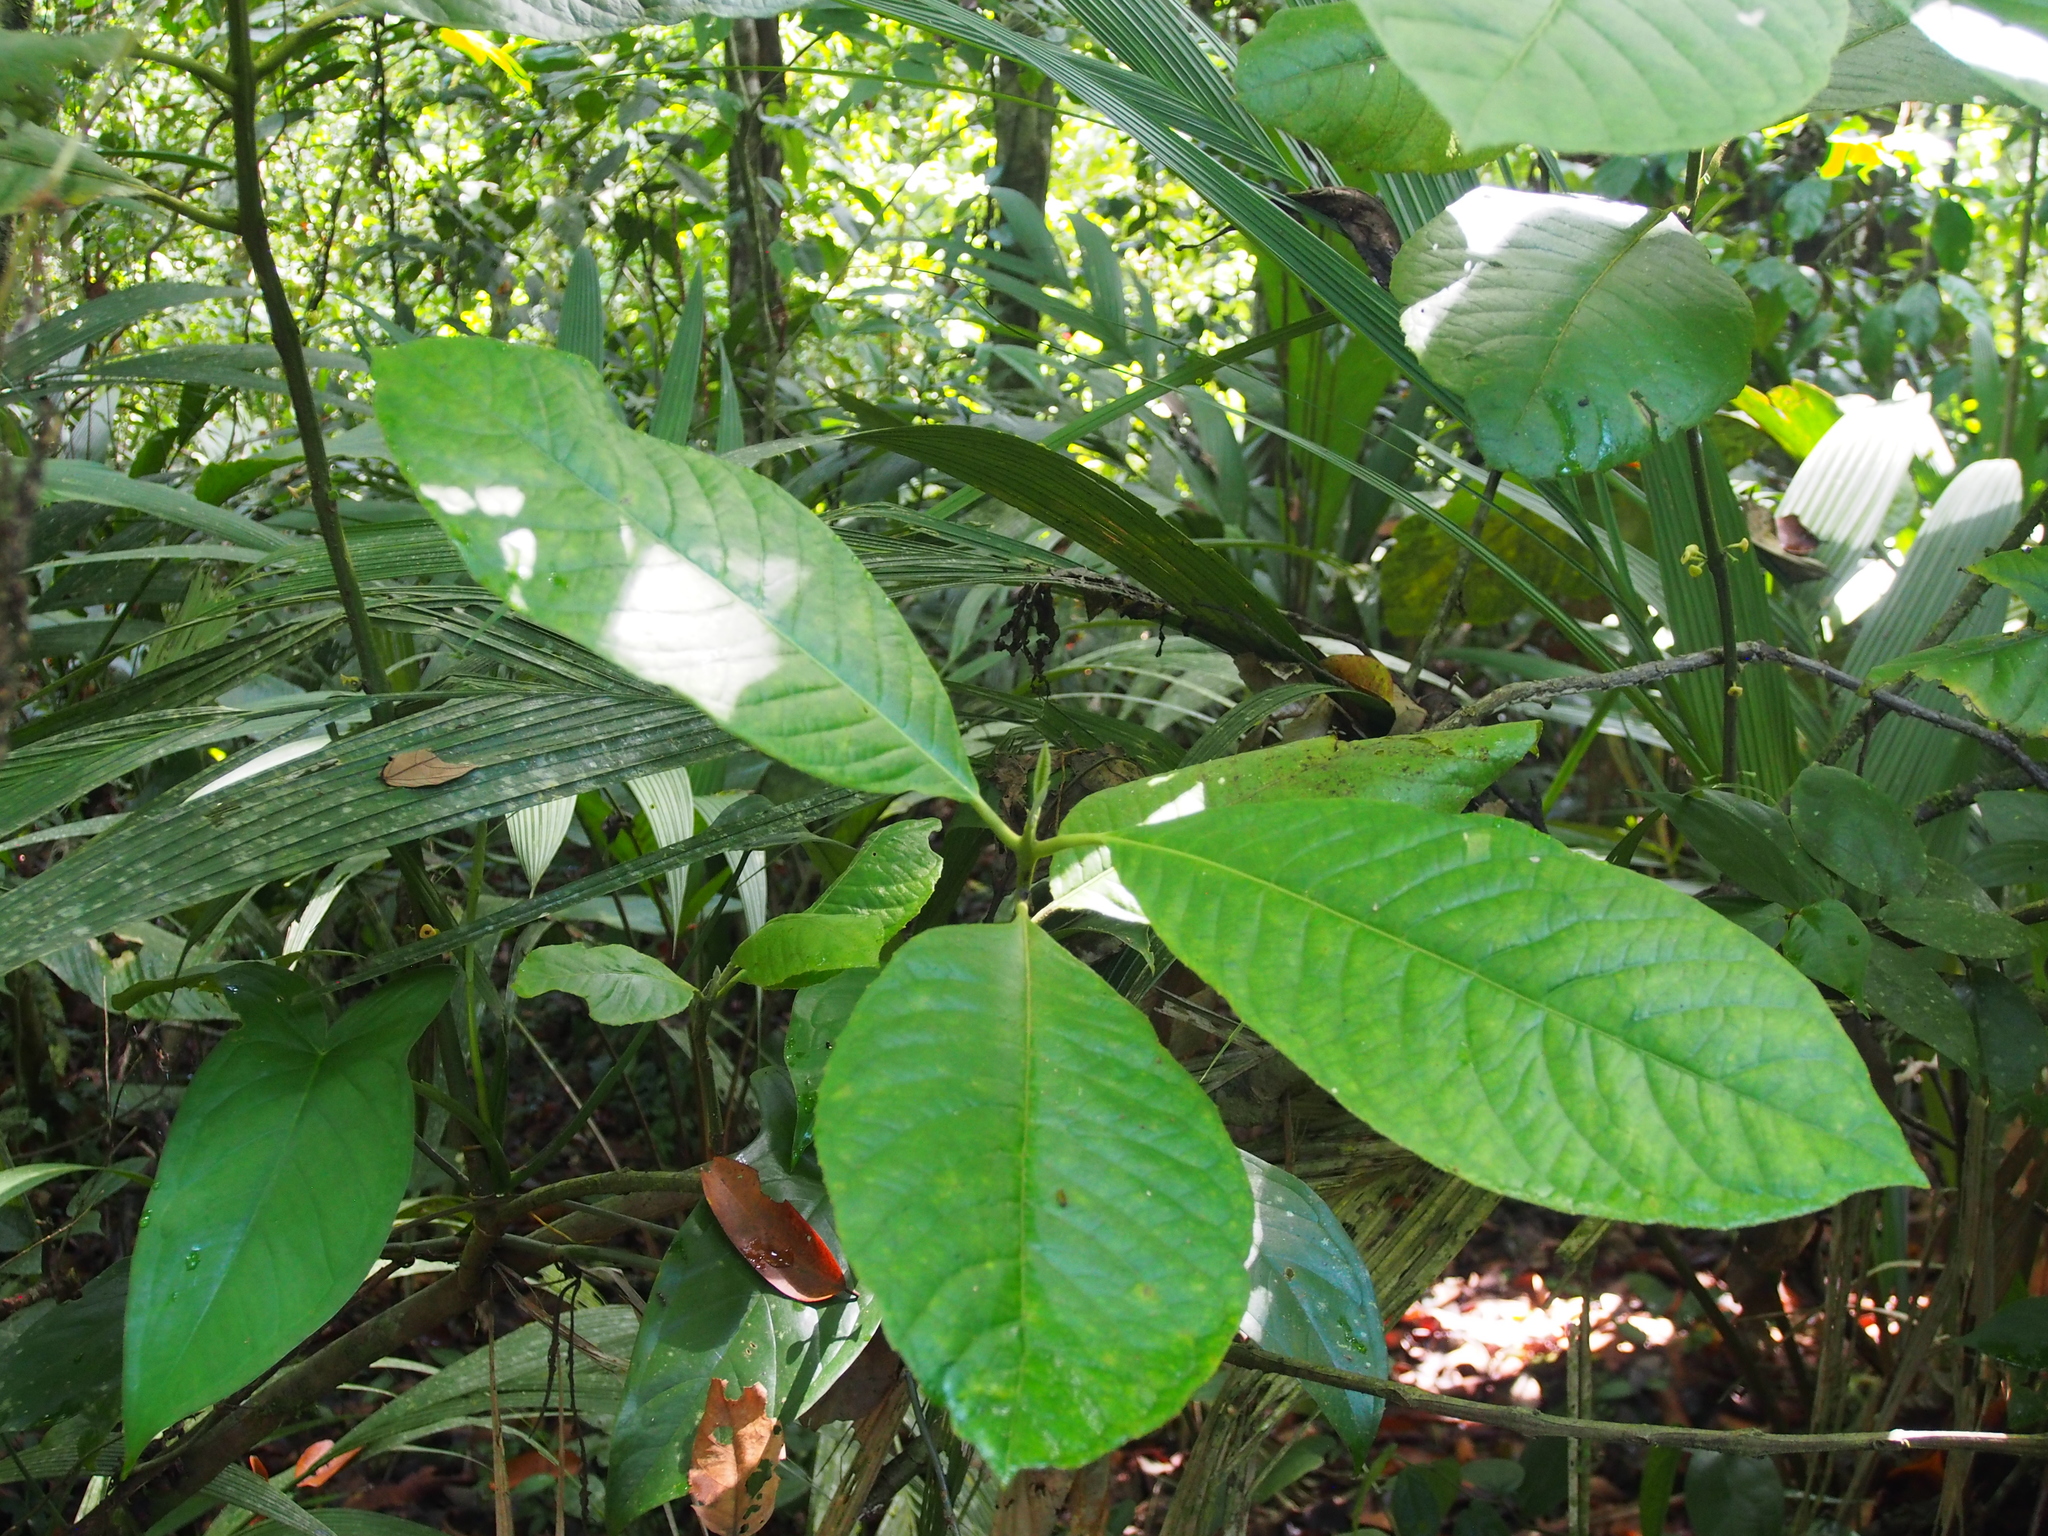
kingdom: Plantae
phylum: Tracheophyta
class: Magnoliopsida
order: Laurales
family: Siparunaceae
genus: Siparuna
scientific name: Siparuna pauciflora
